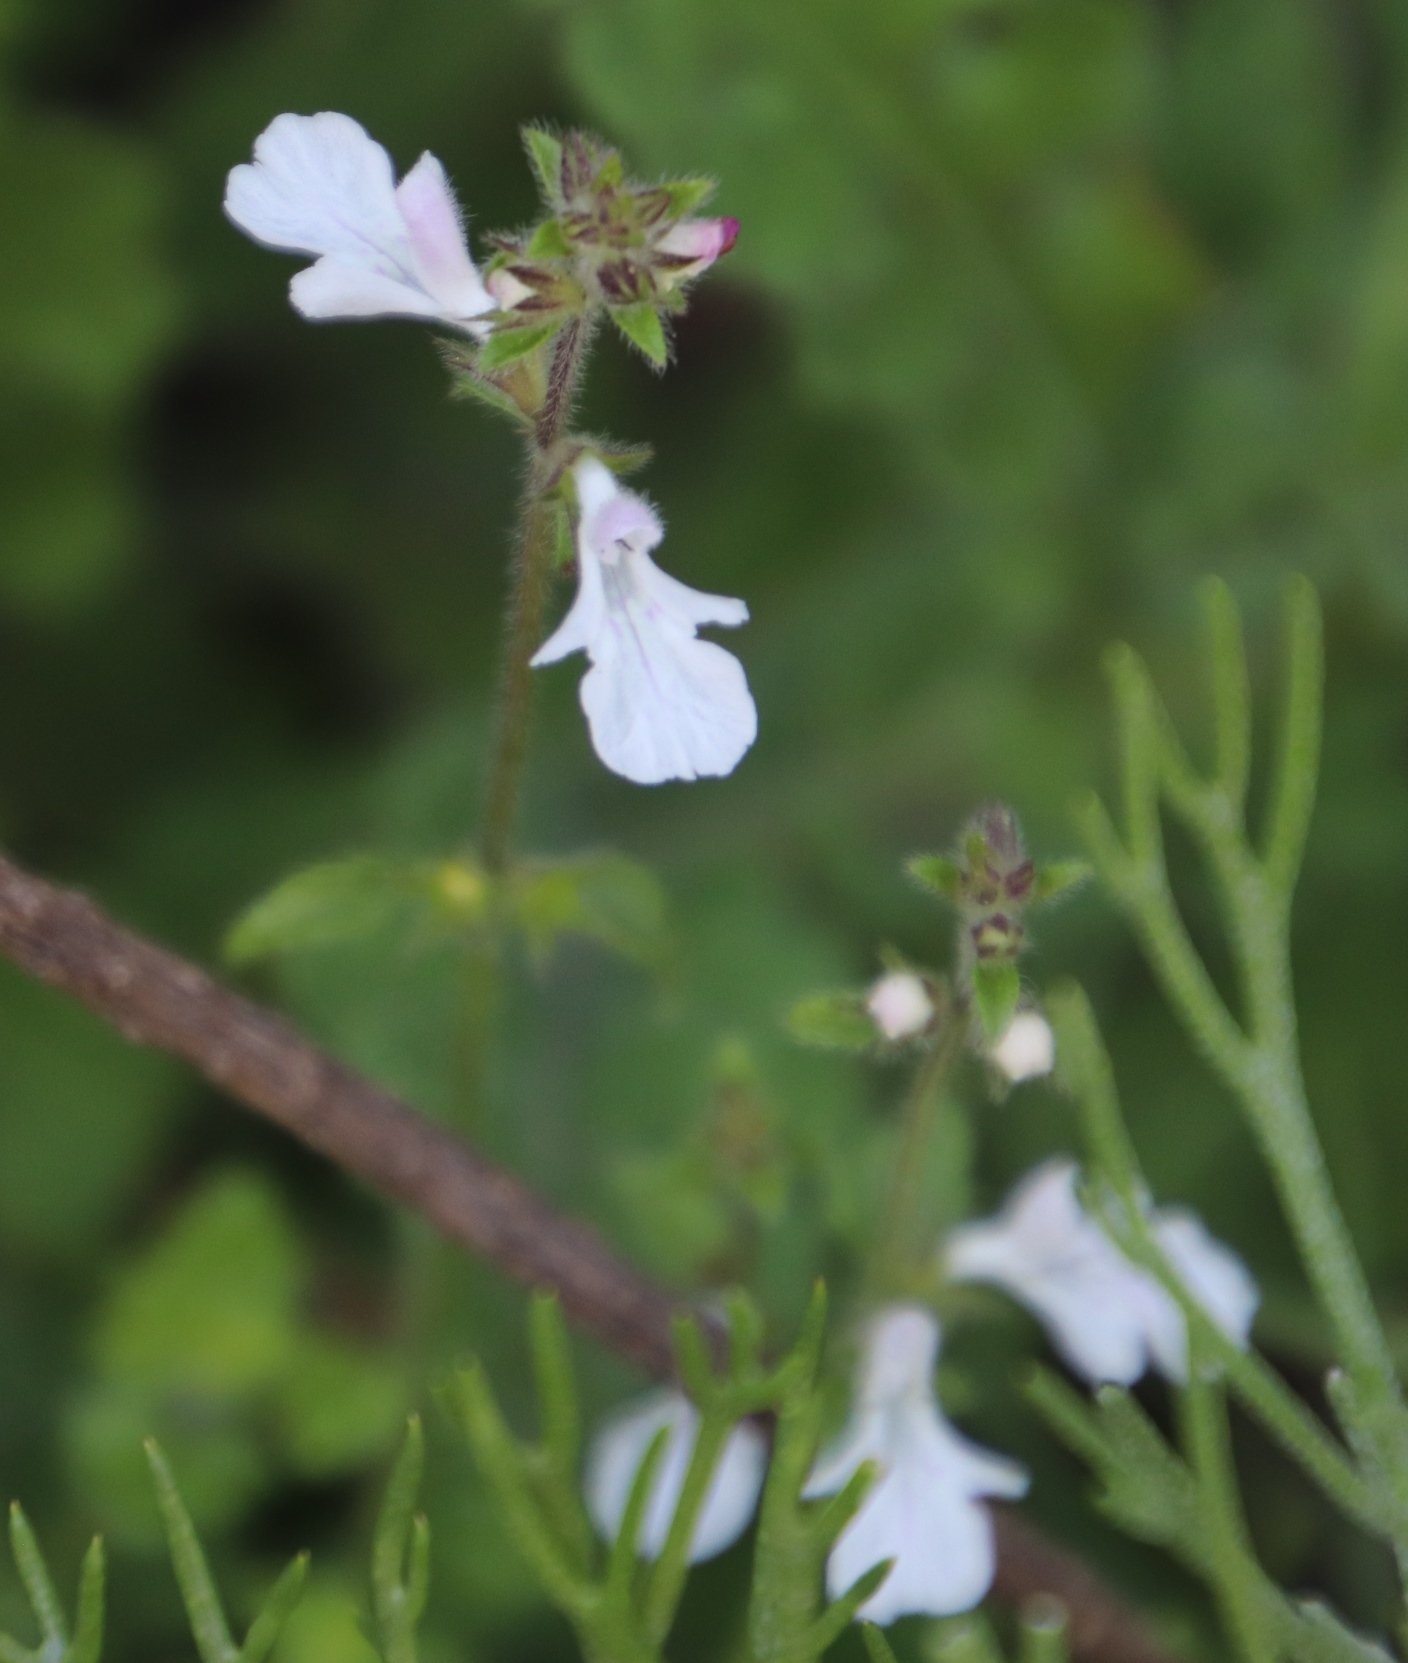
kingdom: Plantae
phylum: Tracheophyta
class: Magnoliopsida
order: Lamiales
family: Lamiaceae
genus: Stachys
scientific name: Stachys aethiopica
